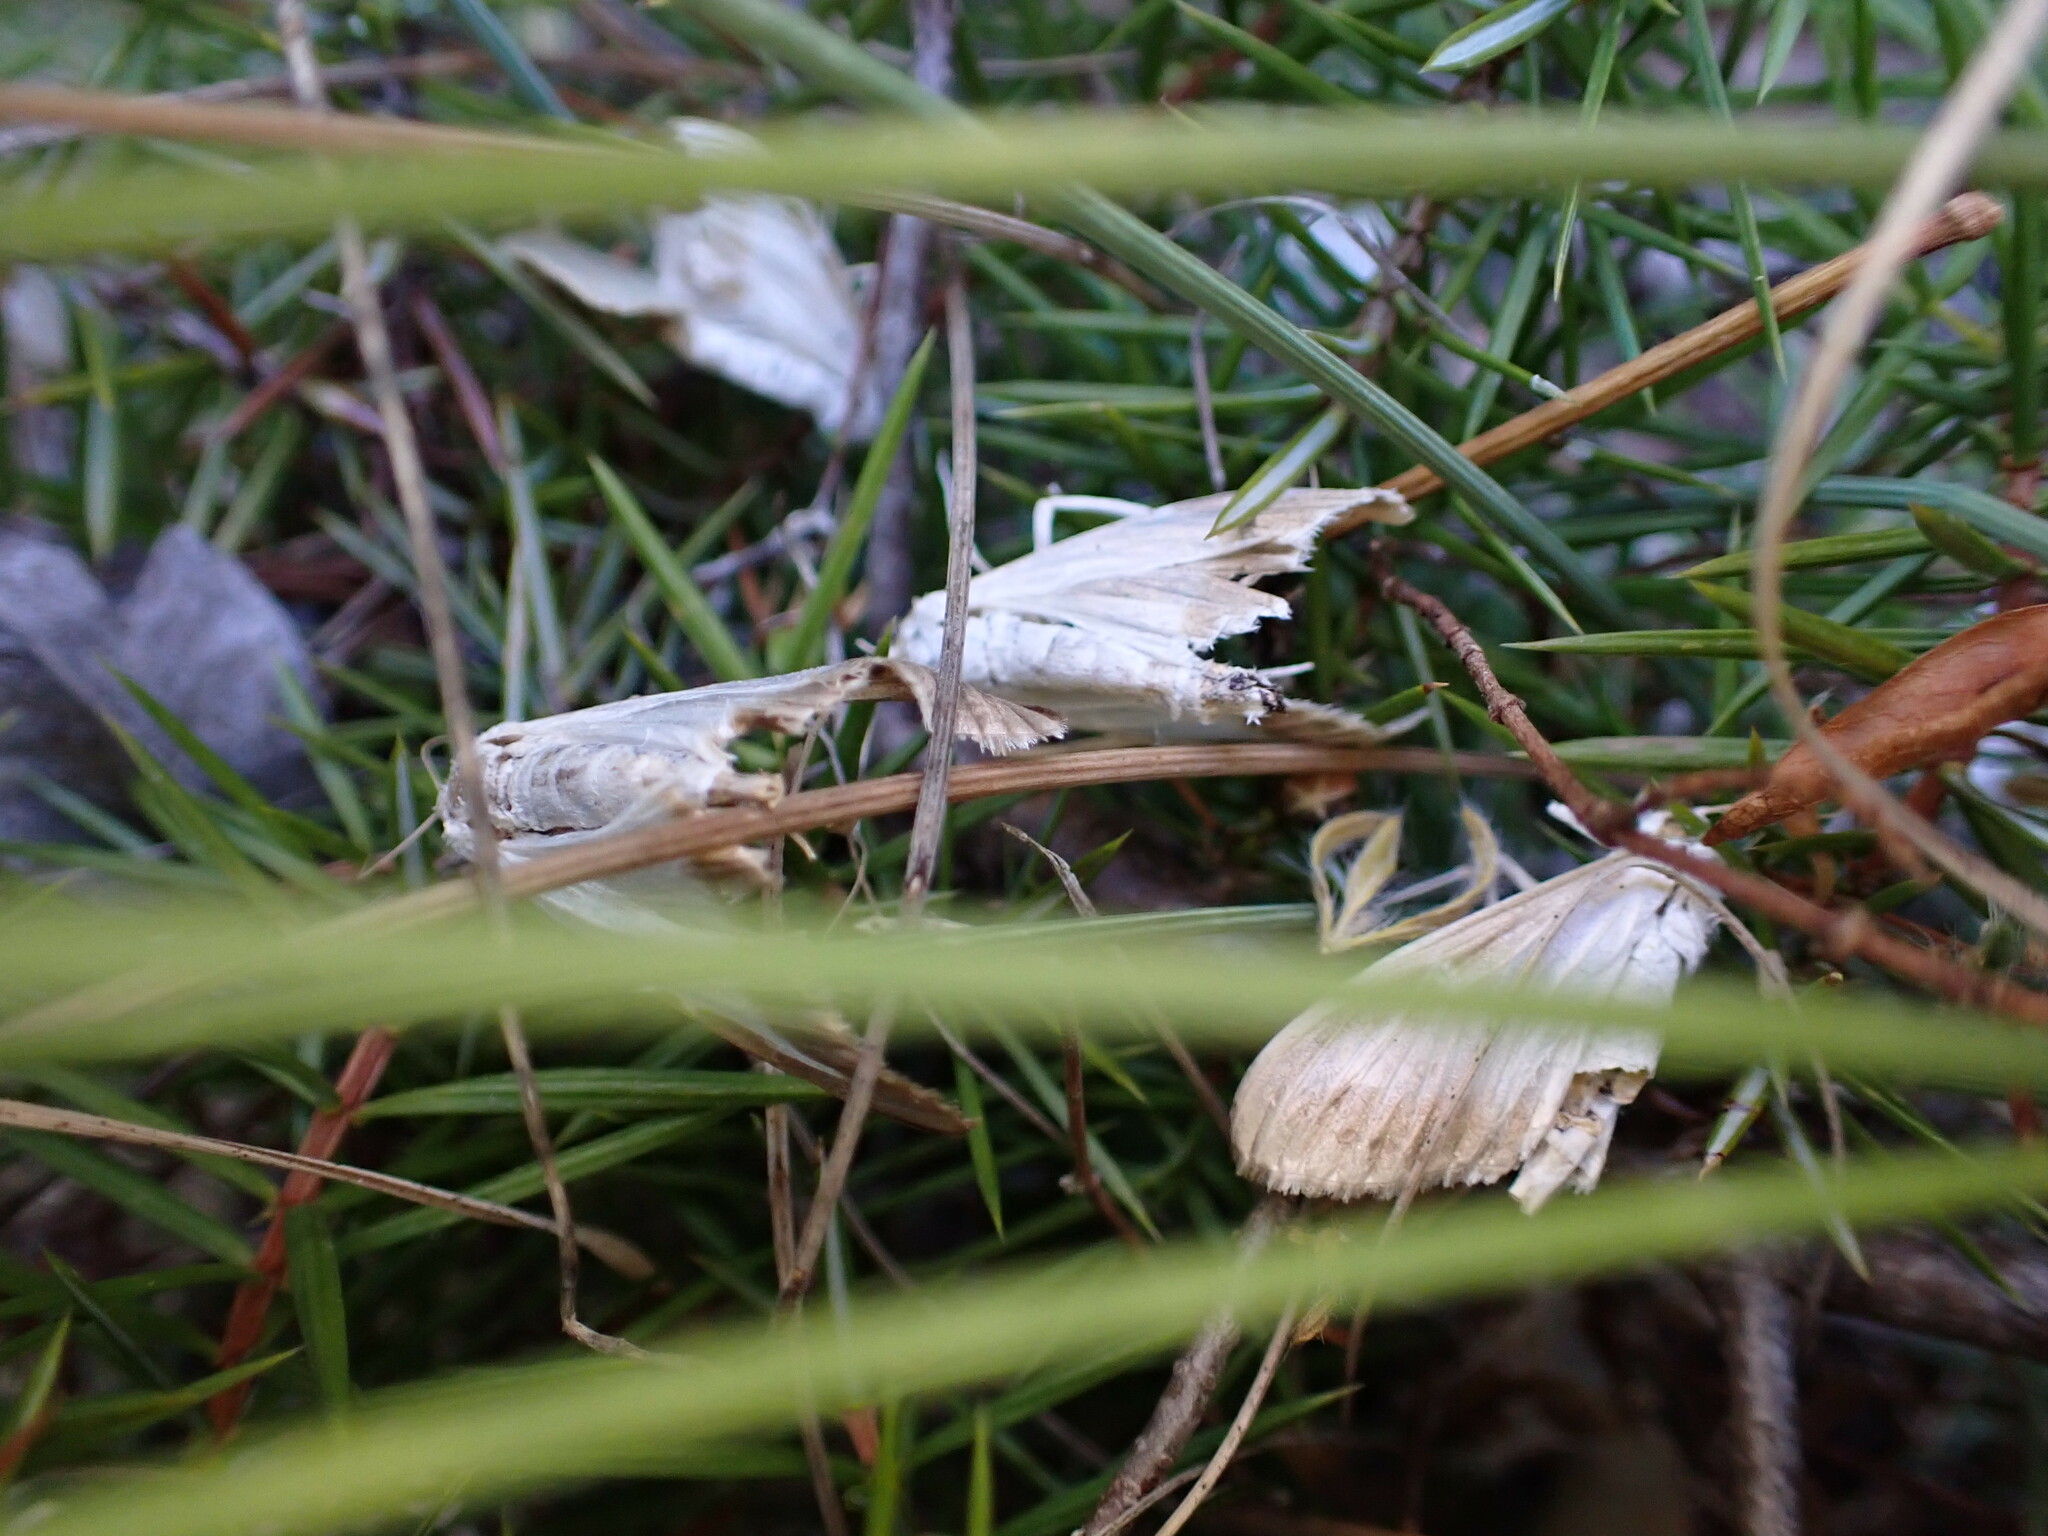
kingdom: Animalia
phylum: Arthropoda
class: Insecta
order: Lepidoptera
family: Crambidae
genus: Cydalima
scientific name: Cydalima perspectalis
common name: Box tree moth
